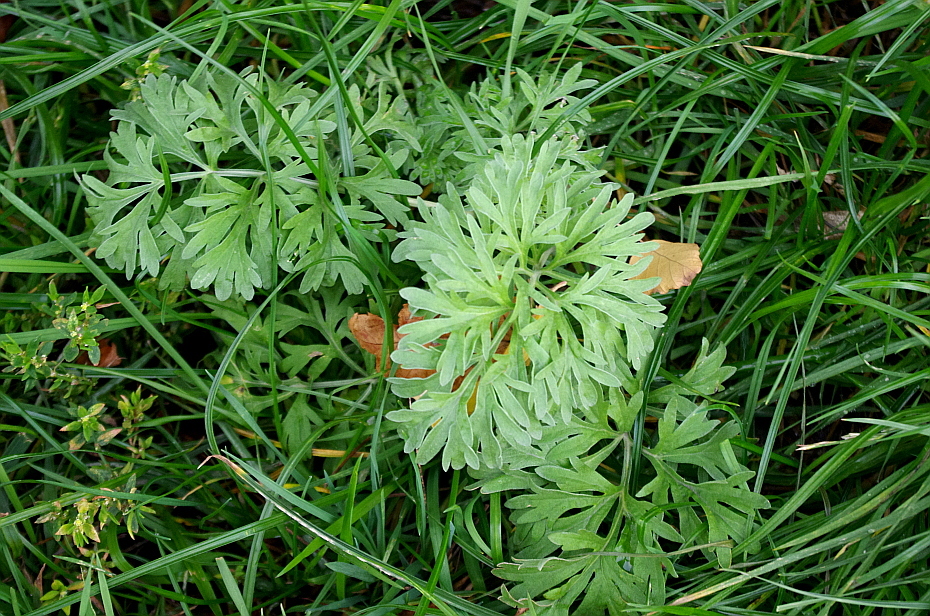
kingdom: Plantae
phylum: Tracheophyta
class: Magnoliopsida
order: Asterales
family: Asteraceae
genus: Artemisia
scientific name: Artemisia absinthium
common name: Wormwood
